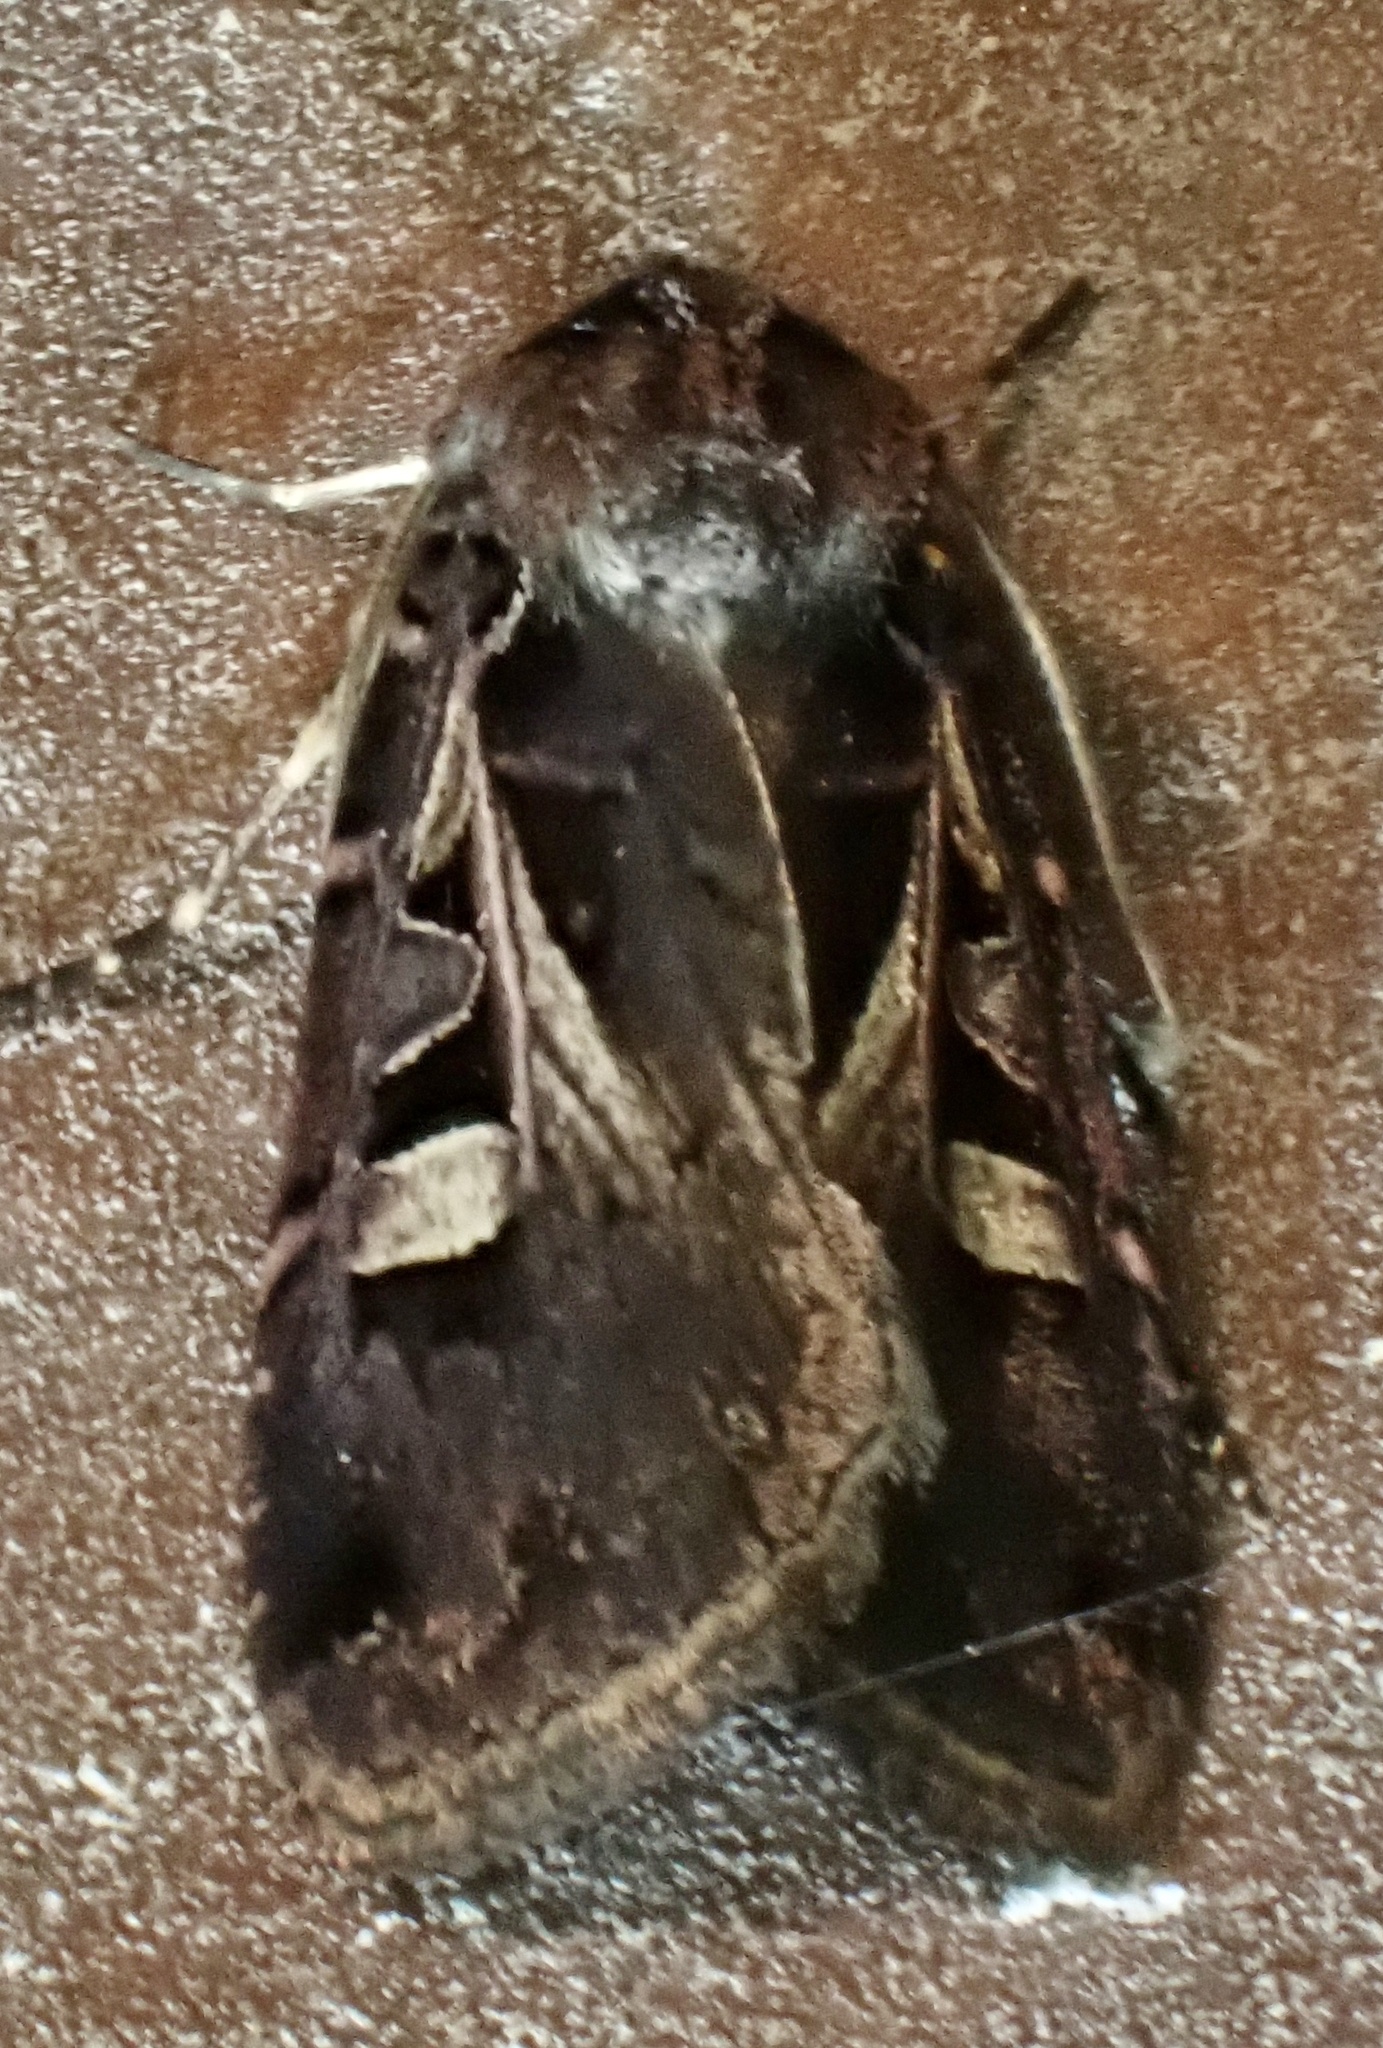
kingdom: Animalia
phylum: Arthropoda
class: Insecta
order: Lepidoptera
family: Noctuidae
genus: Feltia
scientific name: Feltia herilis
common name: Master's dart
